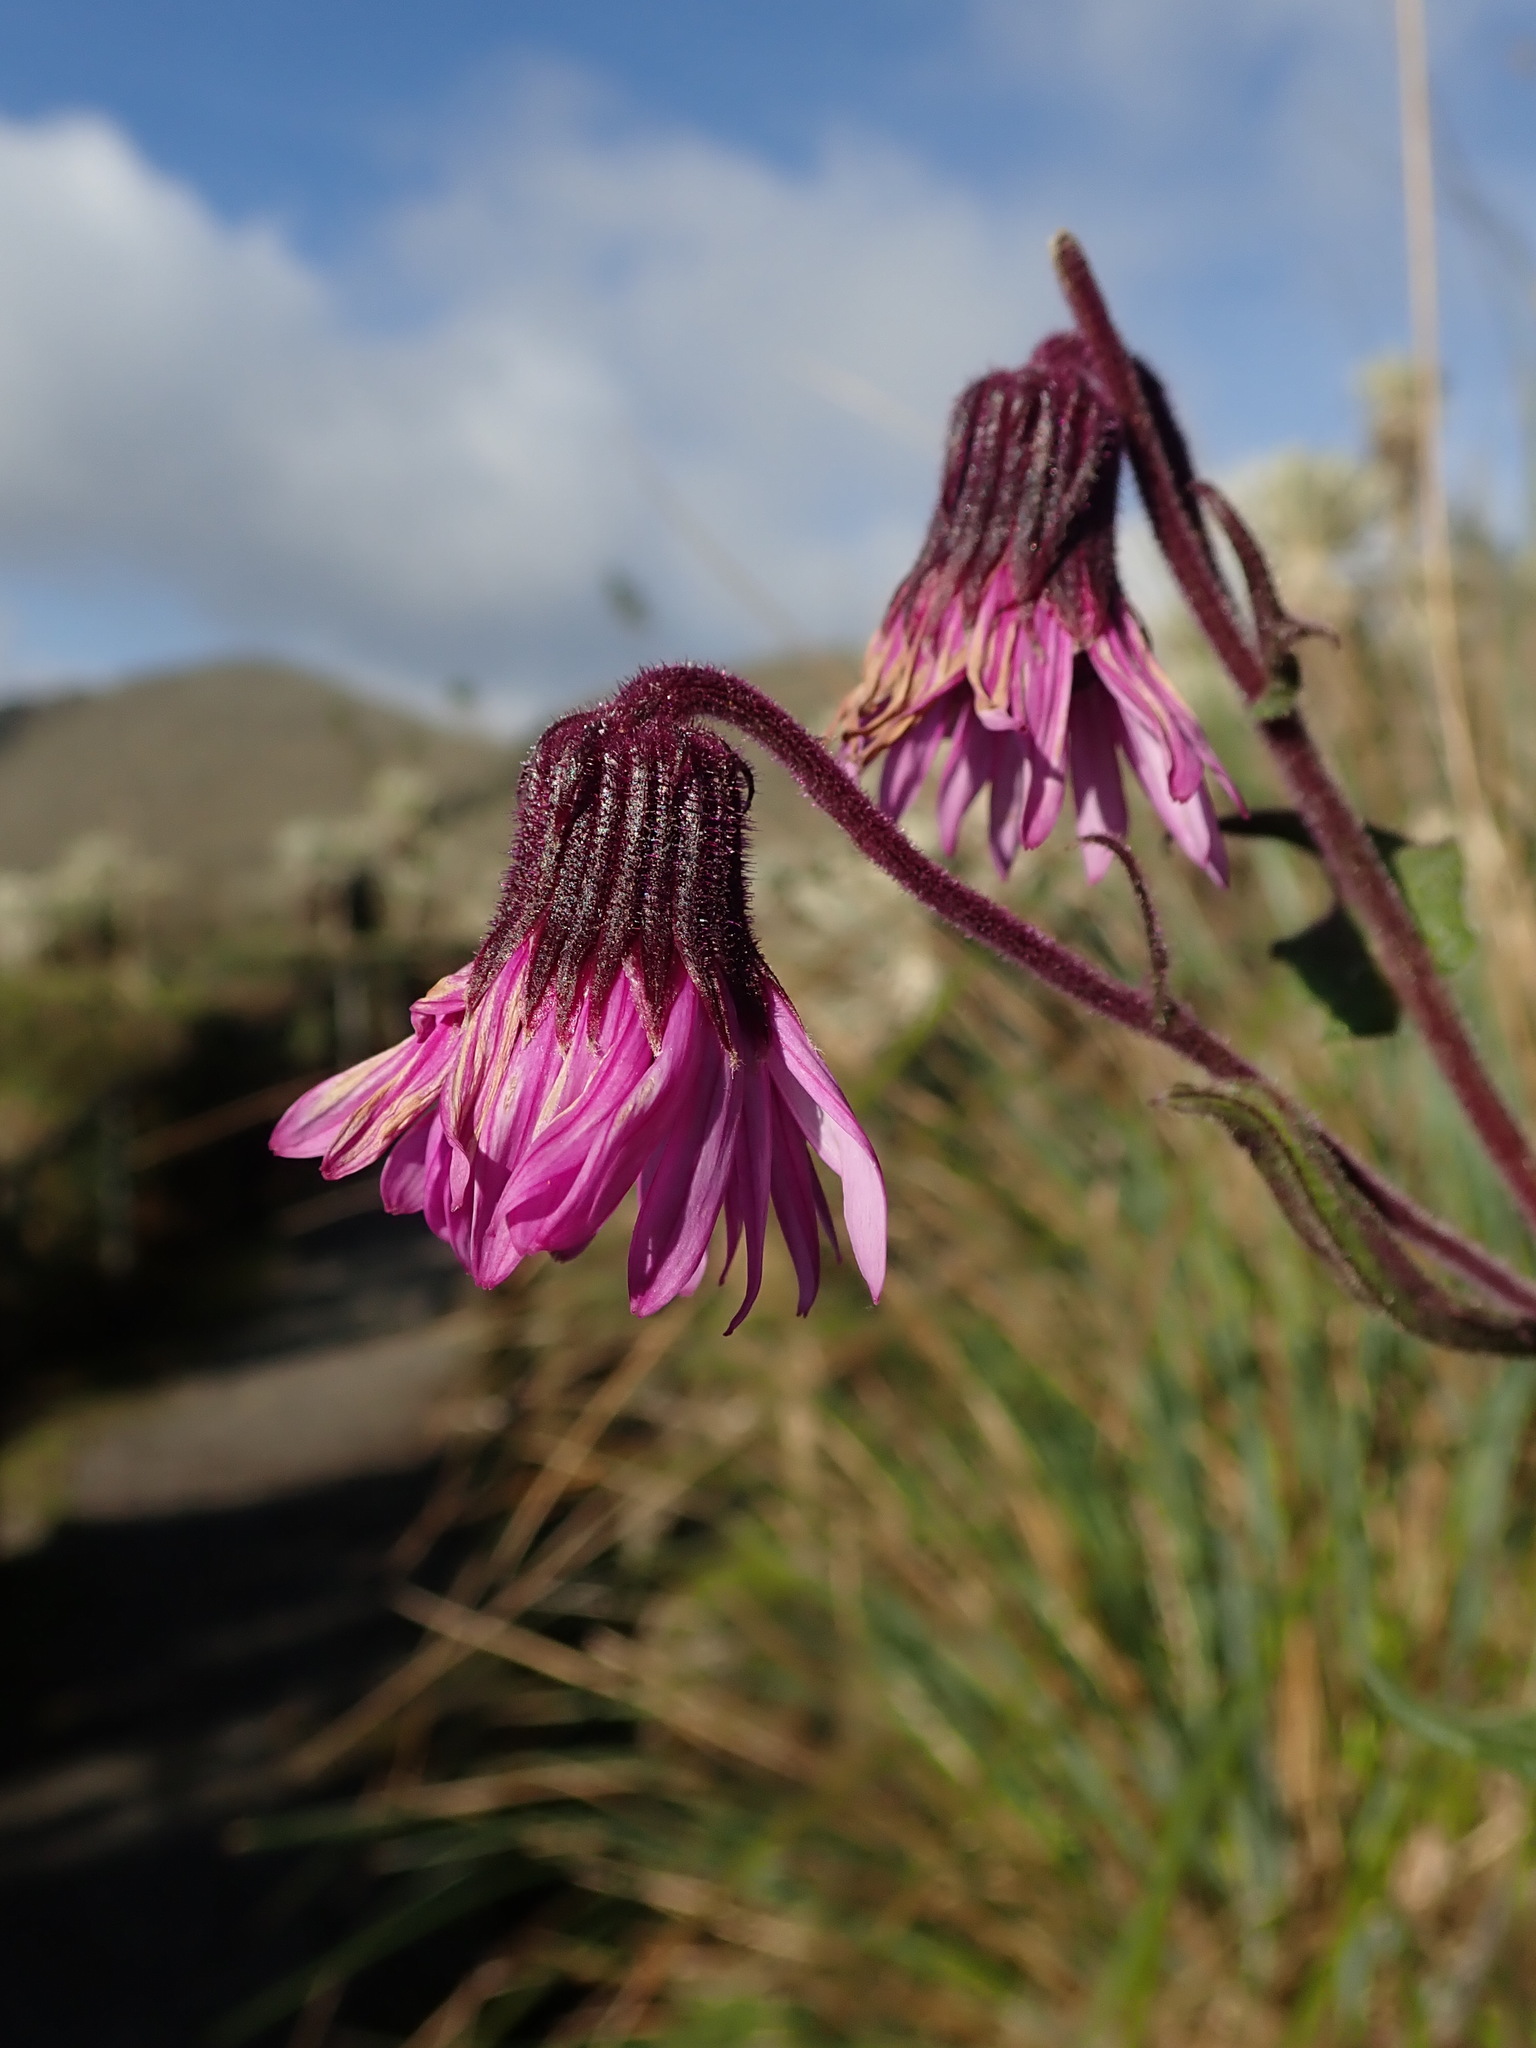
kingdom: Plantae
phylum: Tracheophyta
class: Magnoliopsida
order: Asterales
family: Asteraceae
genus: Senecio
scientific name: Senecio formosus
